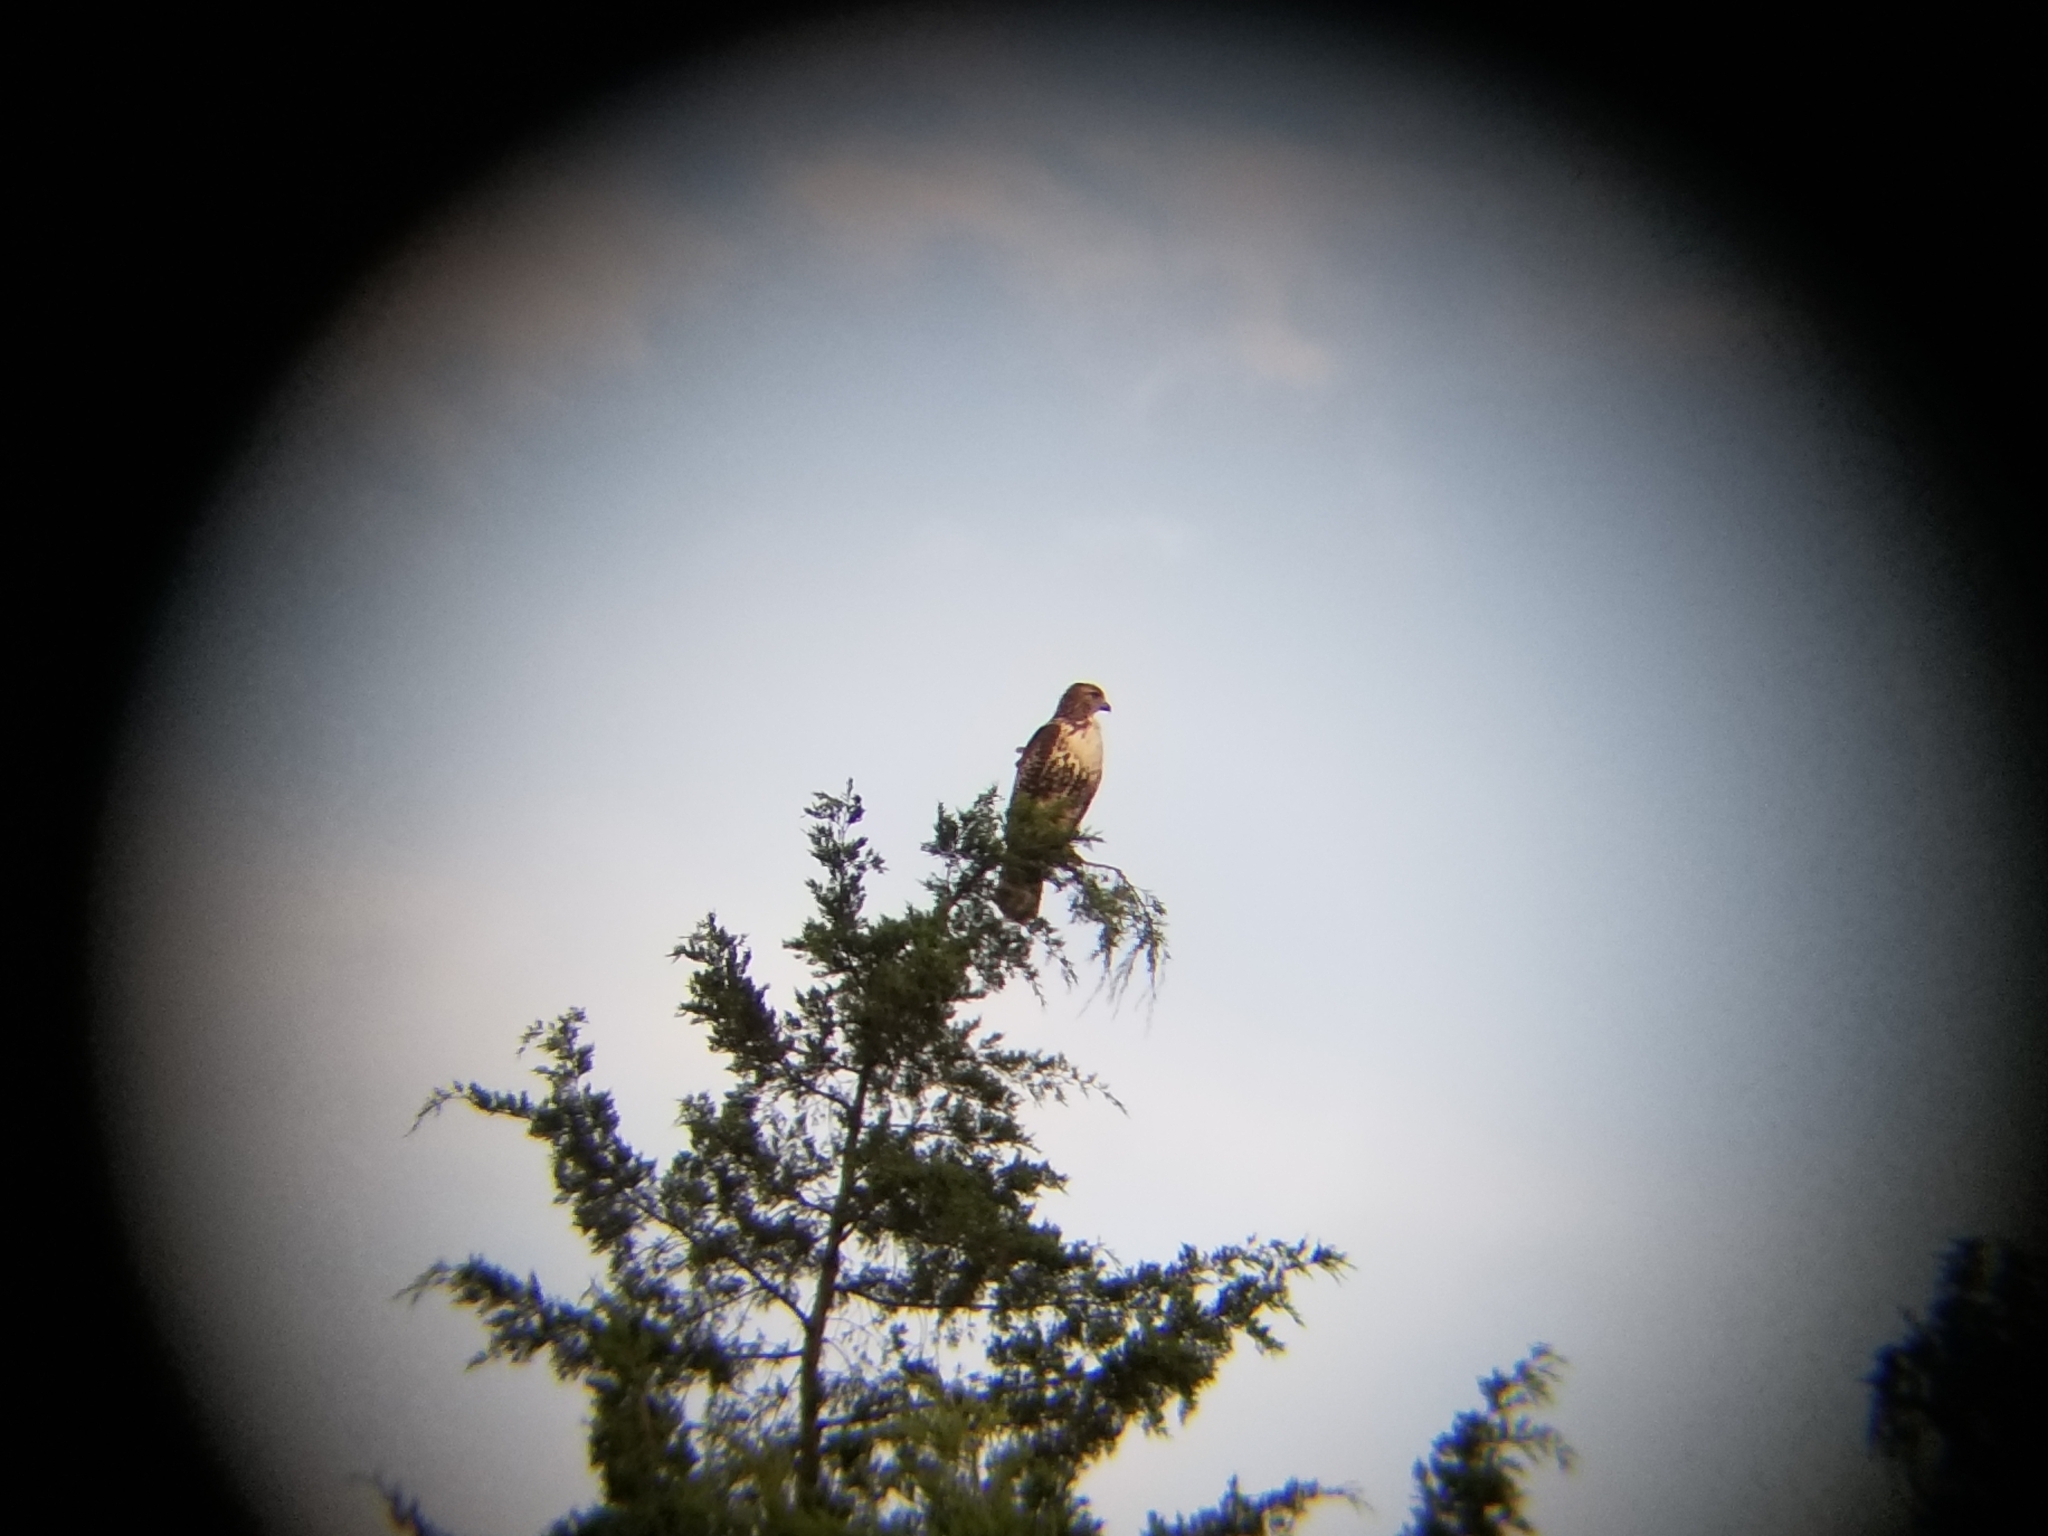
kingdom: Animalia
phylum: Chordata
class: Aves
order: Accipitriformes
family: Accipitridae
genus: Buteo
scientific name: Buteo jamaicensis
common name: Red-tailed hawk
